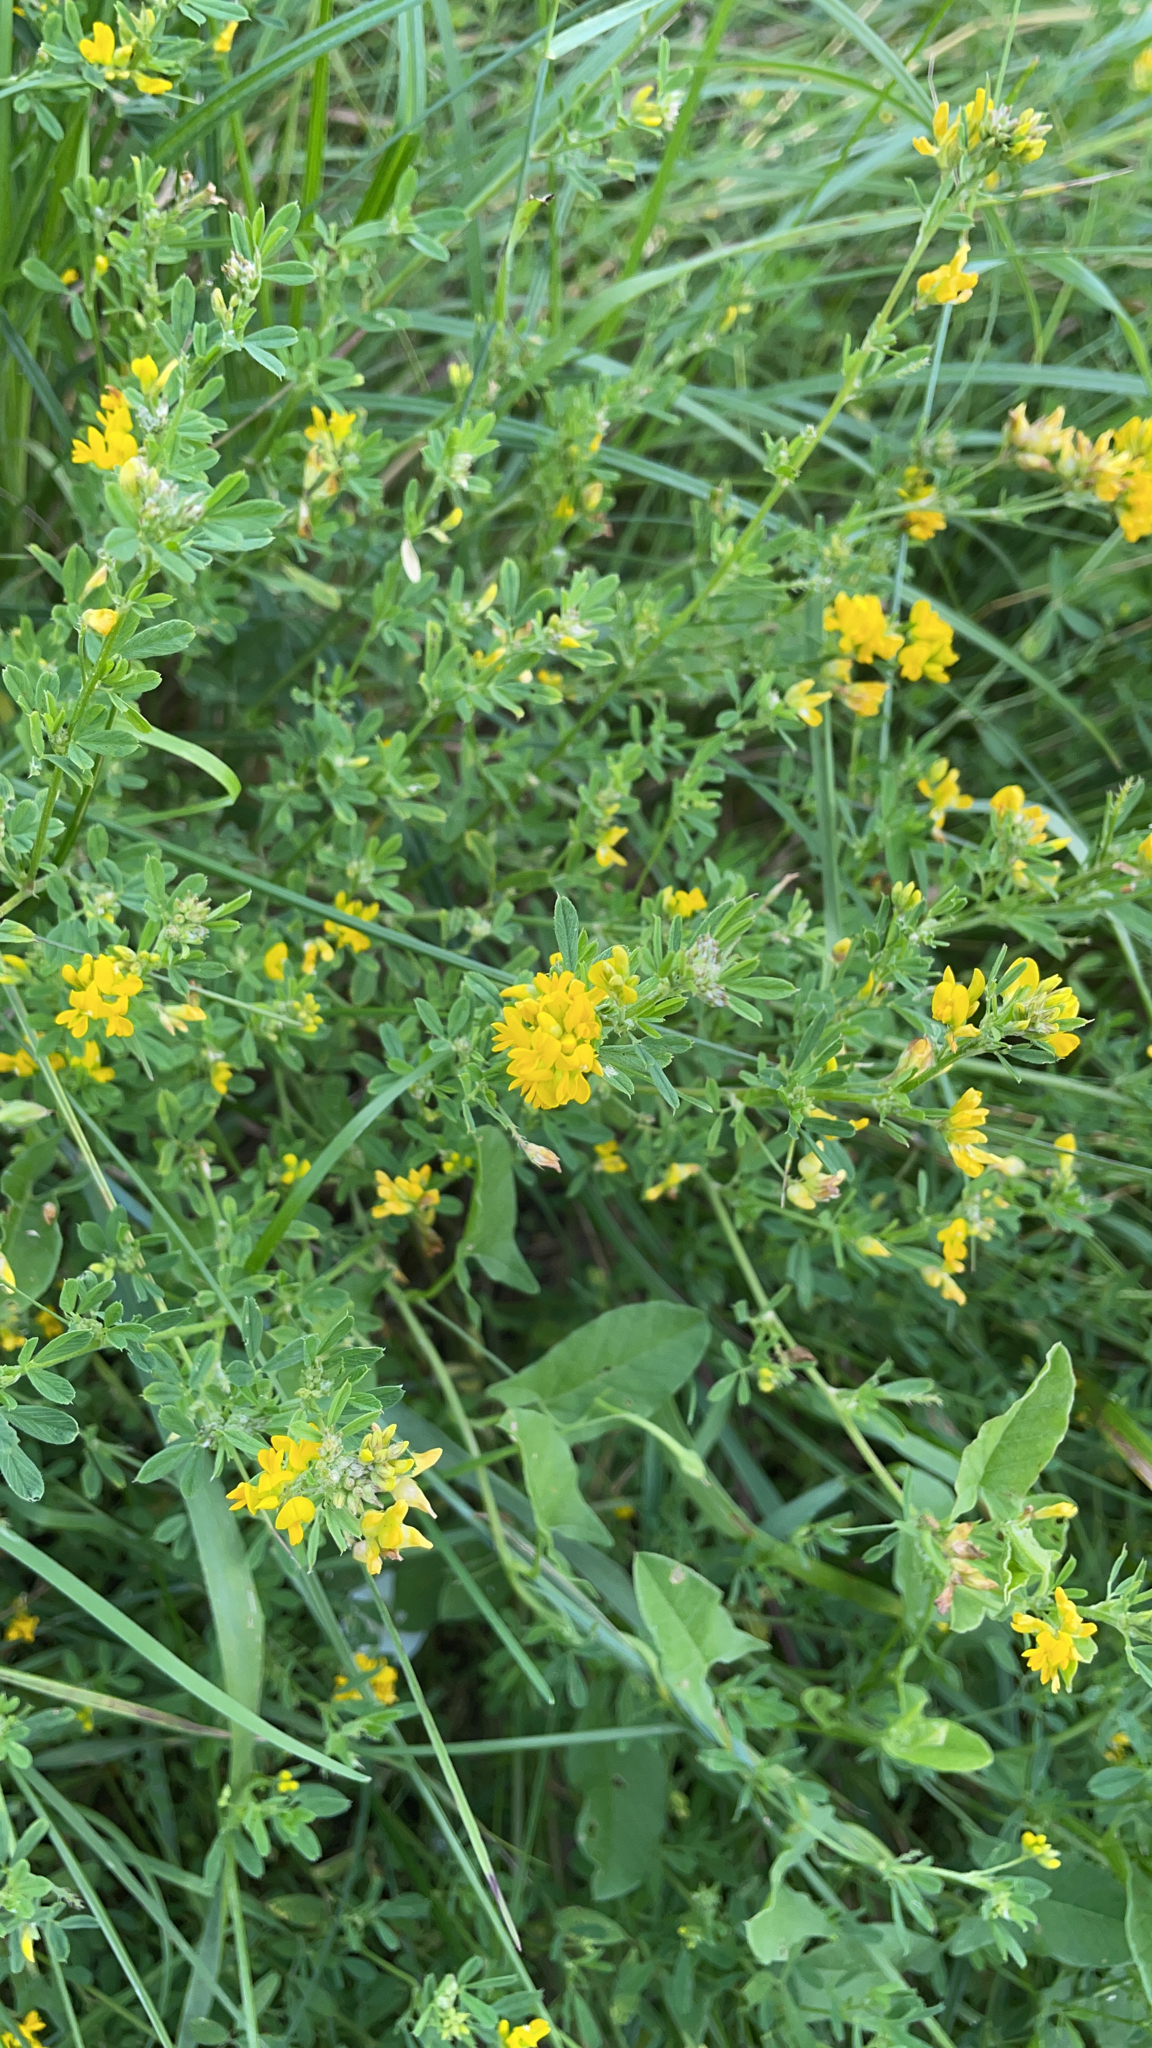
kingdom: Plantae
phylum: Tracheophyta
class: Magnoliopsida
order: Fabales
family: Fabaceae
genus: Medicago
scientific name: Medicago falcata
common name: Sickle medick
